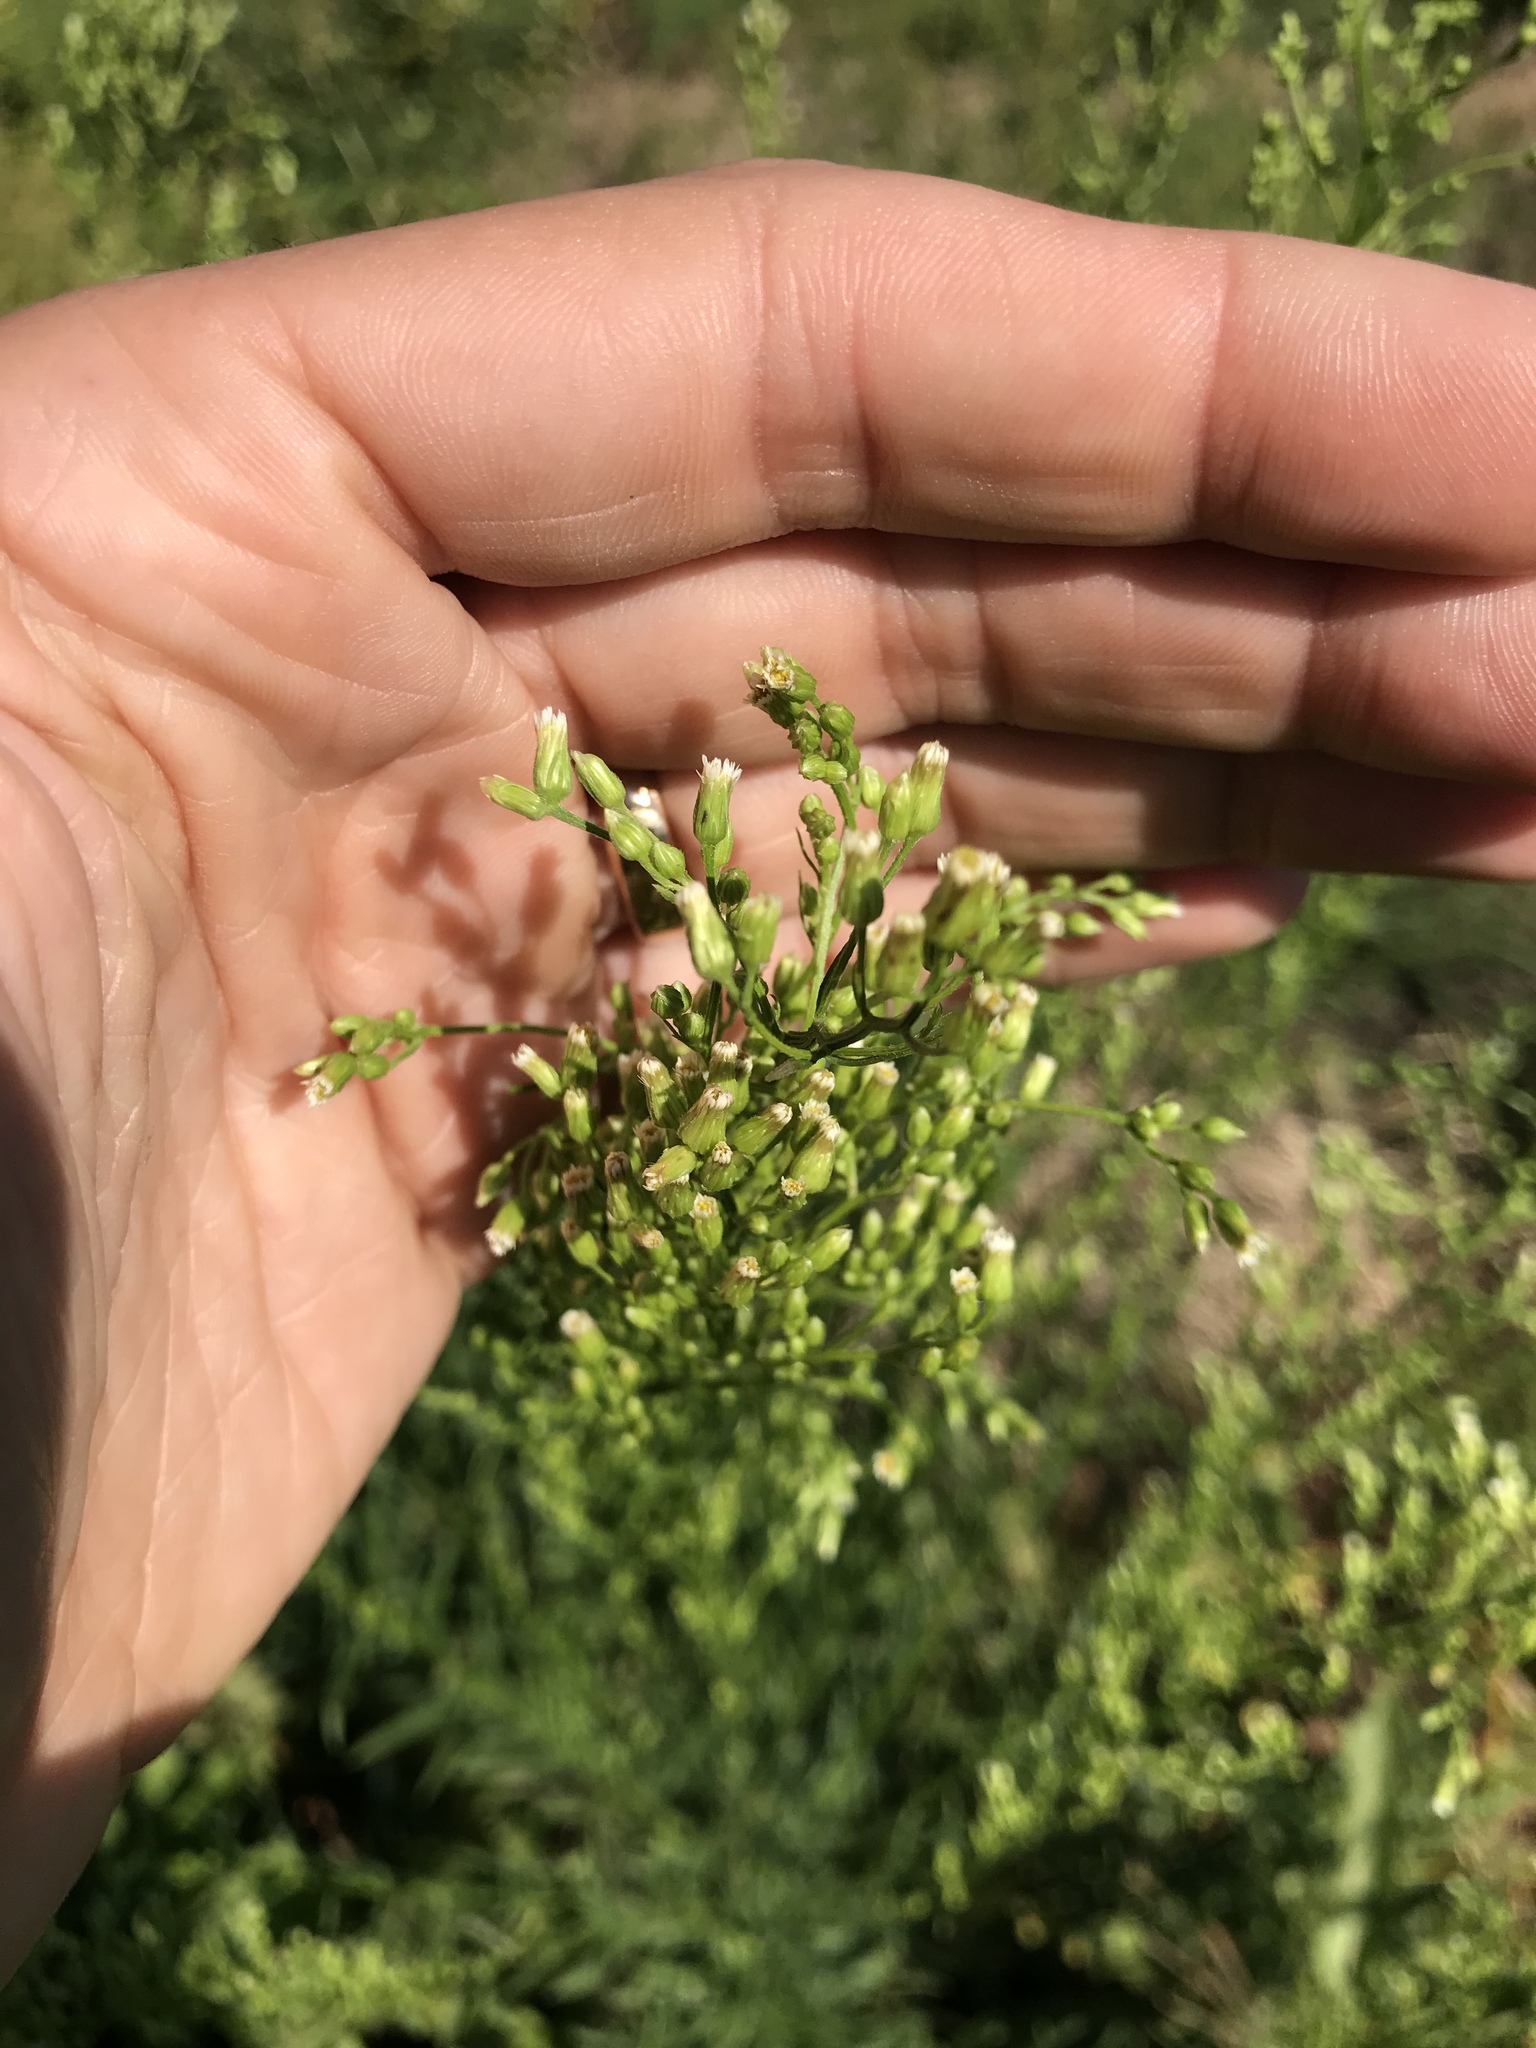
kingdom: Plantae
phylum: Tracheophyta
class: Magnoliopsida
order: Asterales
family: Asteraceae
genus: Erigeron
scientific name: Erigeron canadensis
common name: Canadian fleabane
